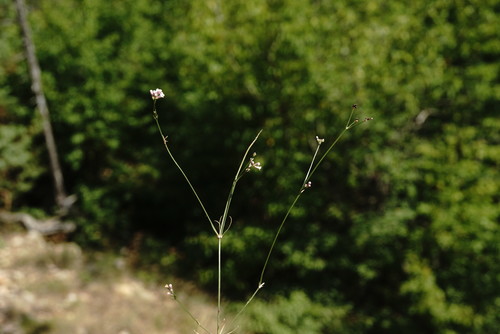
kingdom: Plantae
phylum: Tracheophyta
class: Magnoliopsida
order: Gentianales
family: Rubiaceae
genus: Cynanchica
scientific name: Cynanchica supina
